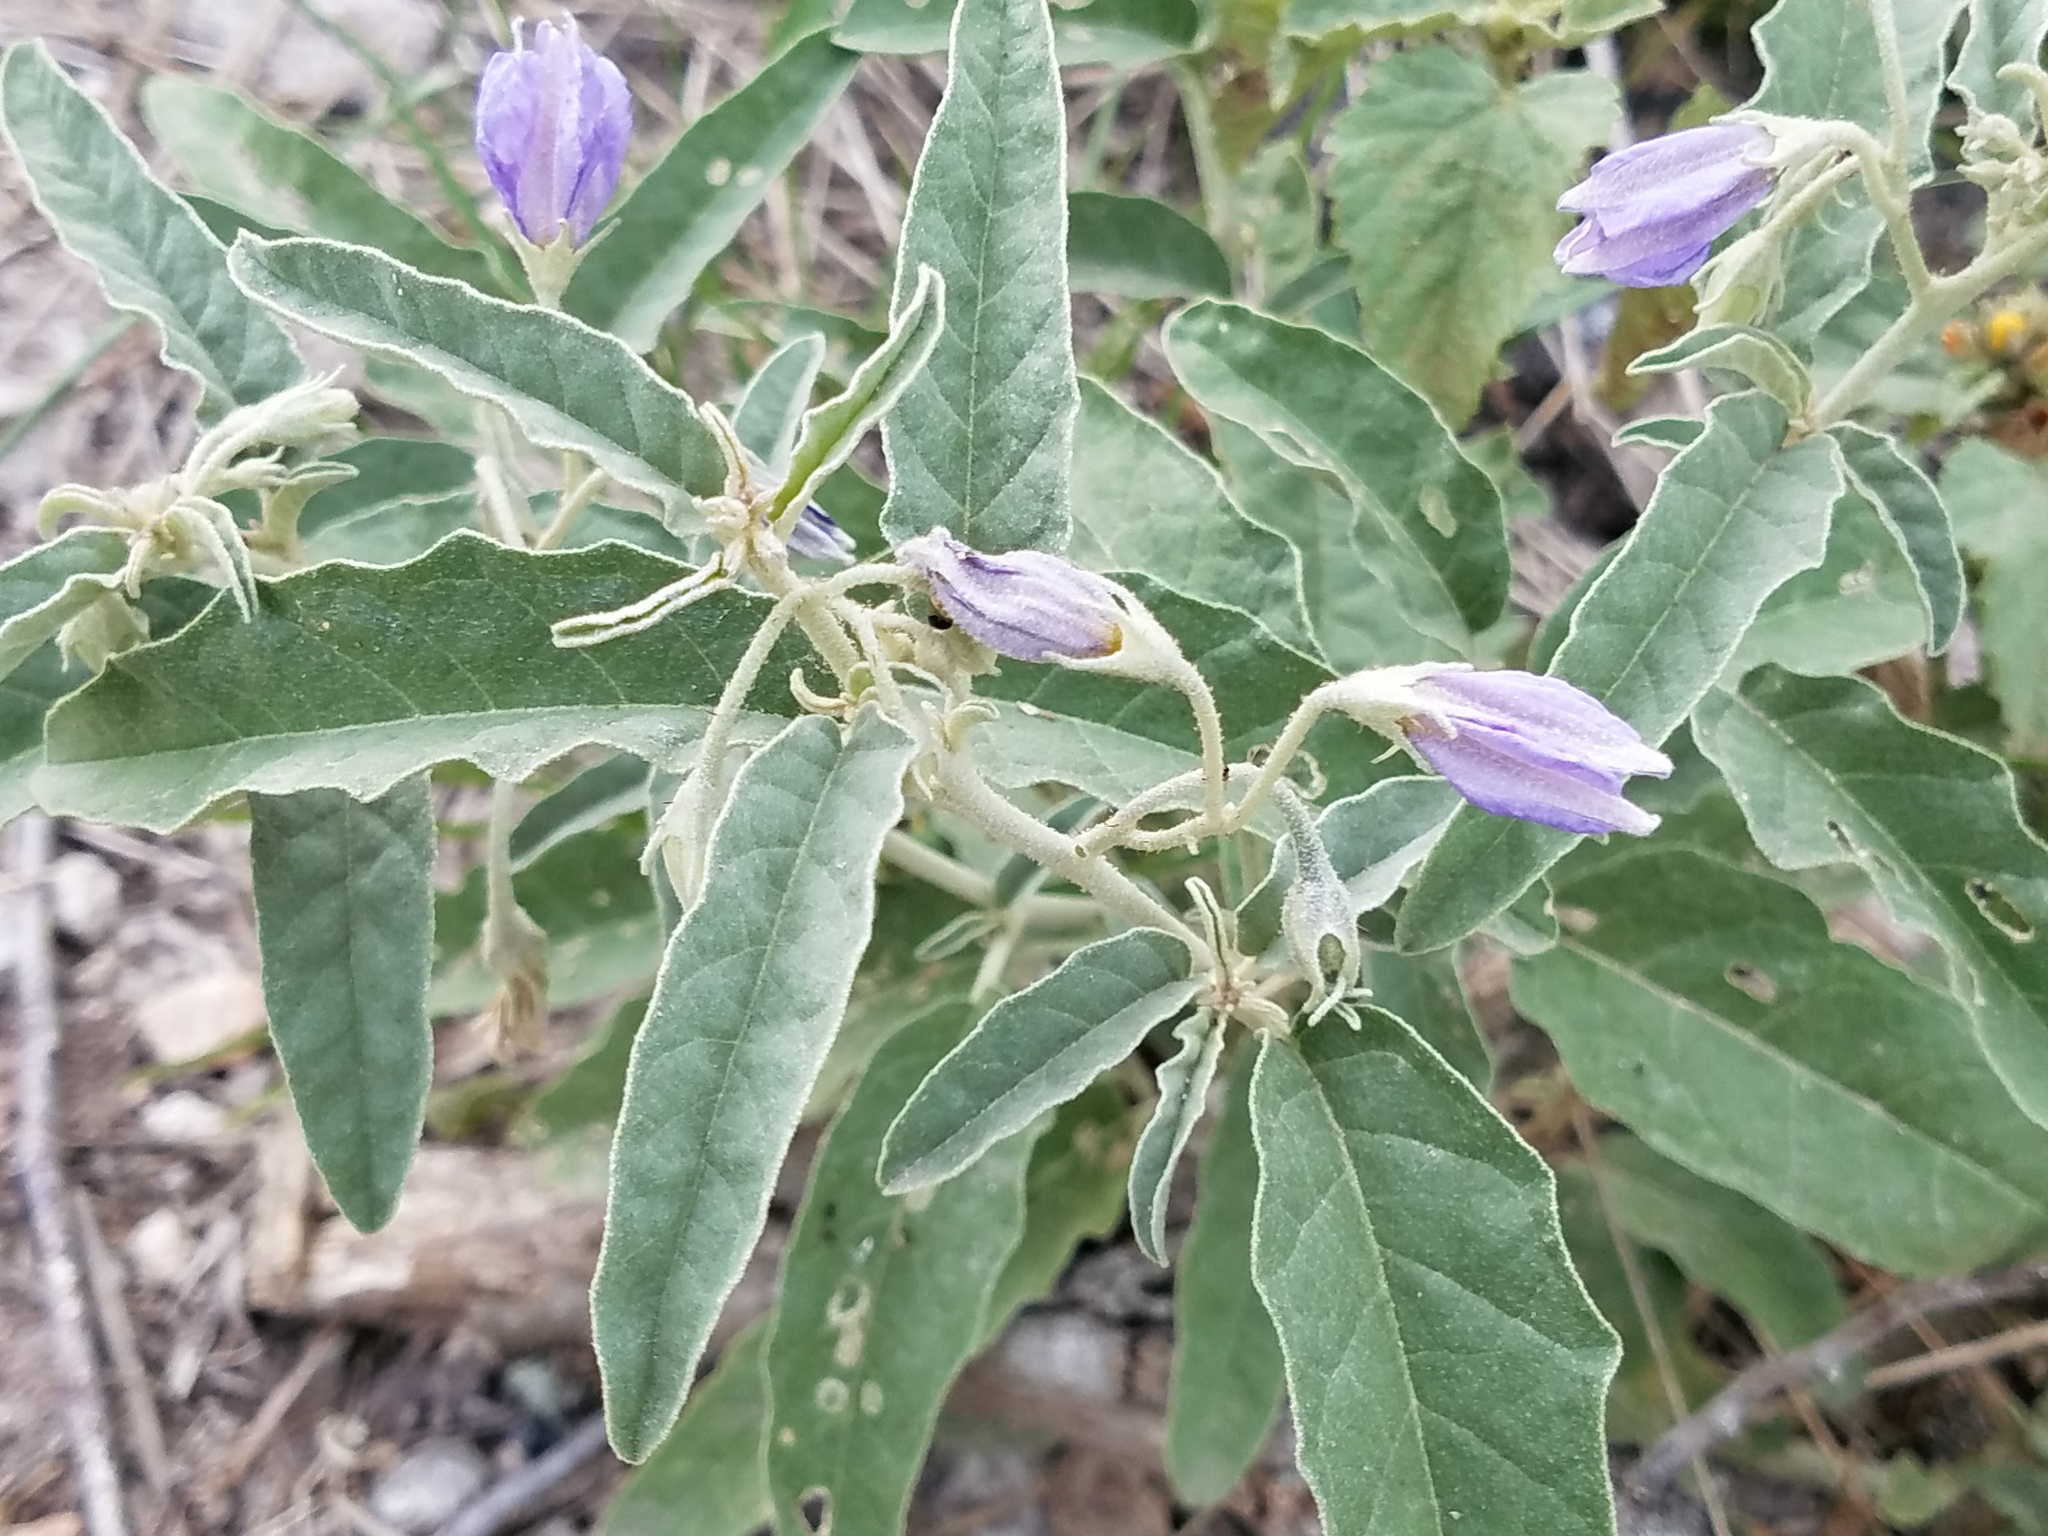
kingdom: Plantae
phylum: Tracheophyta
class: Magnoliopsida
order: Solanales
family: Solanaceae
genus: Solanum
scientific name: Solanum elaeagnifolium
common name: Silverleaf nightshade
